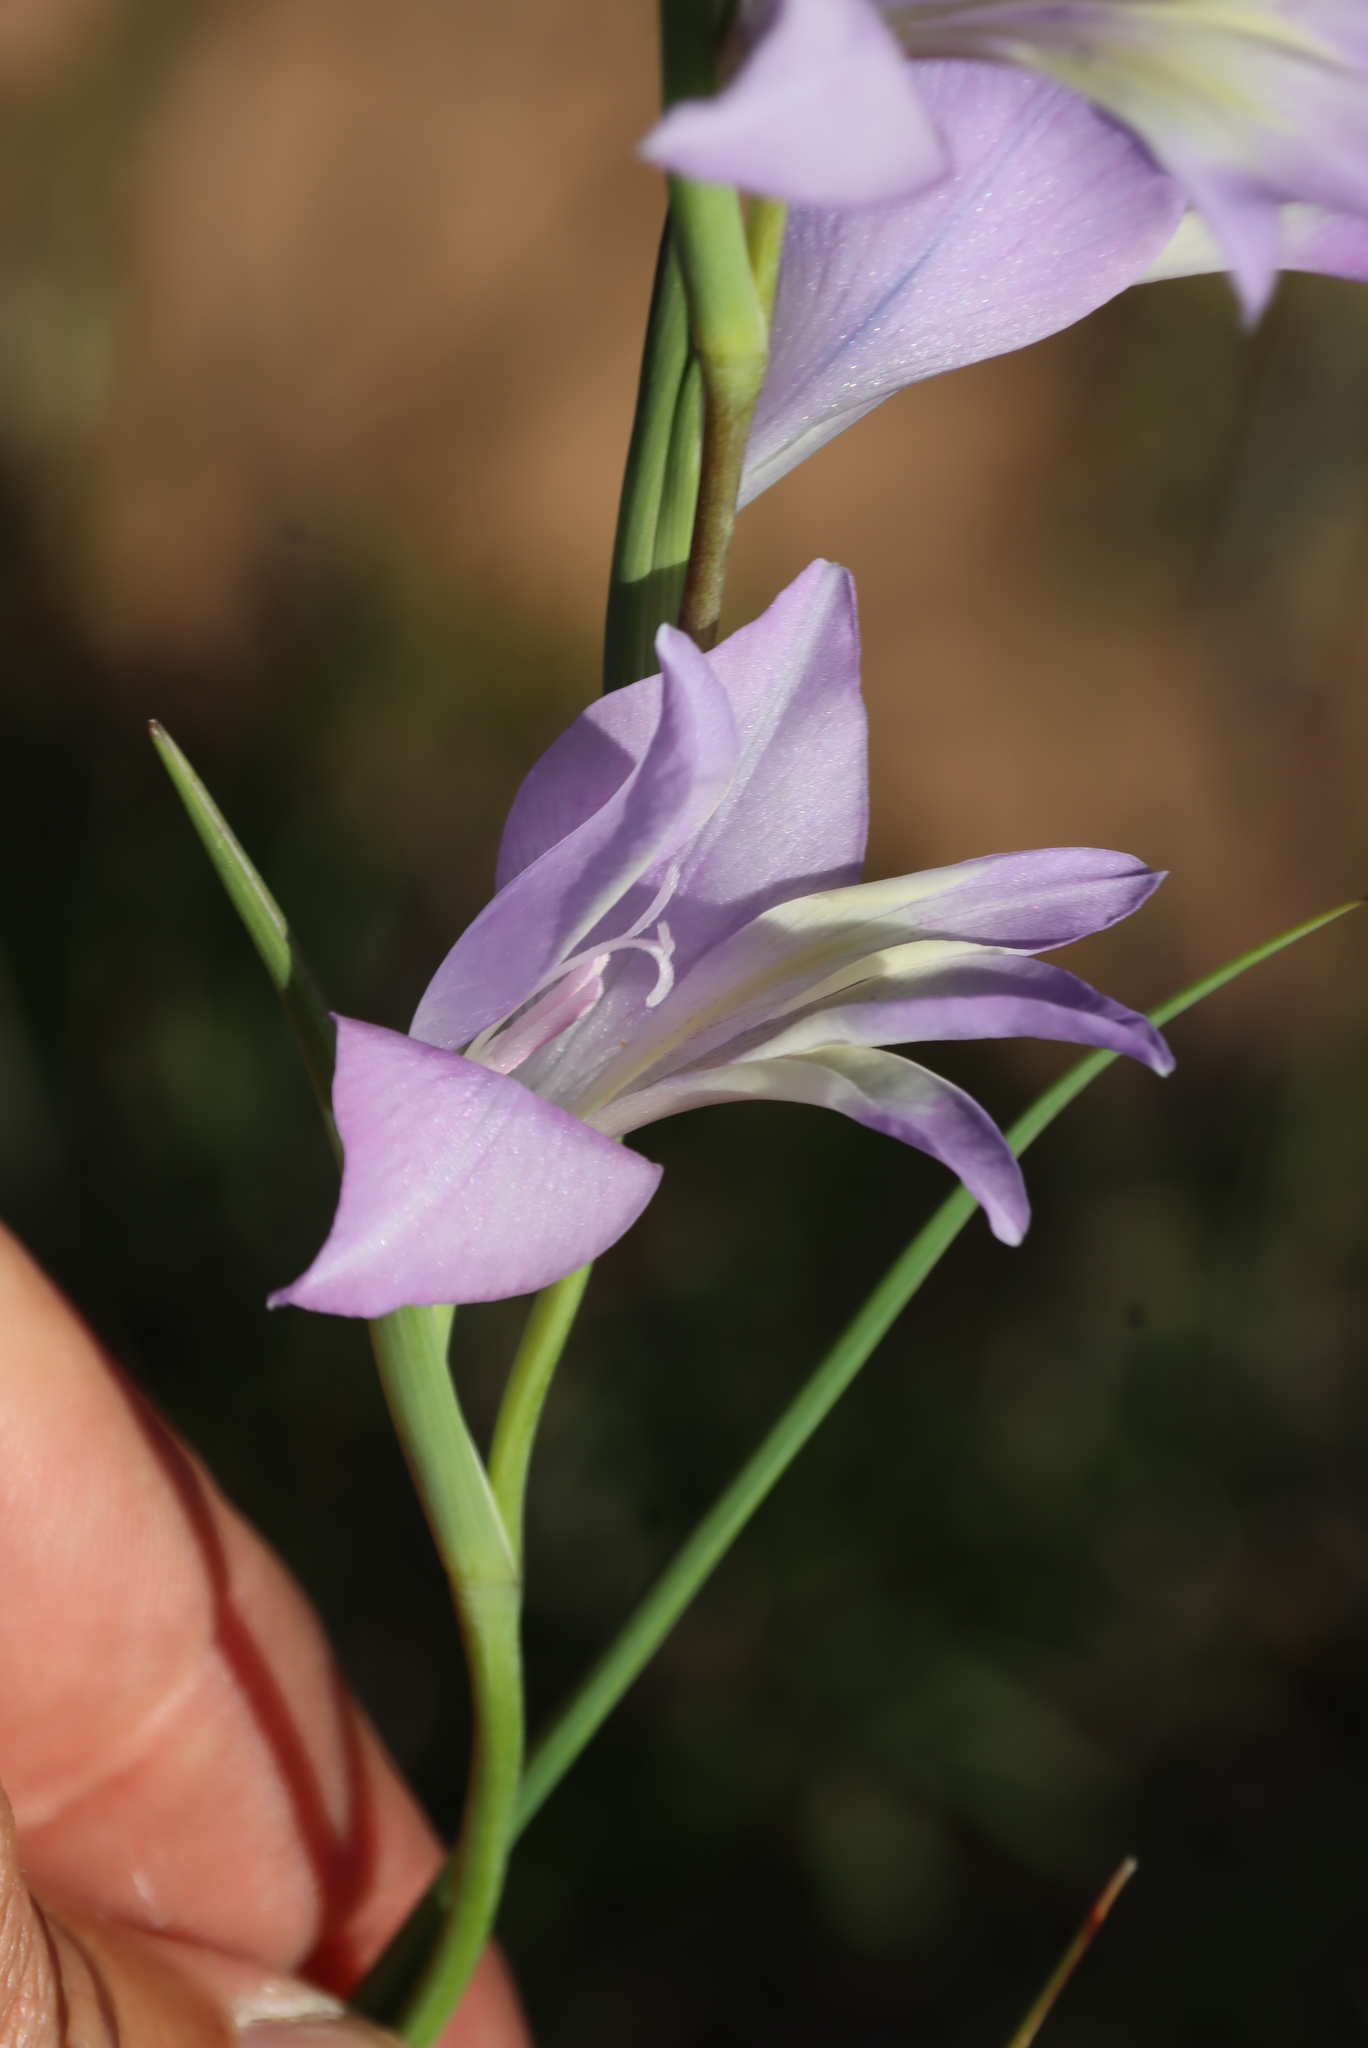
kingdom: Plantae
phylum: Tracheophyta
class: Liliopsida
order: Asparagales
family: Iridaceae
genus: Gladiolus
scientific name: Gladiolus carinatus
